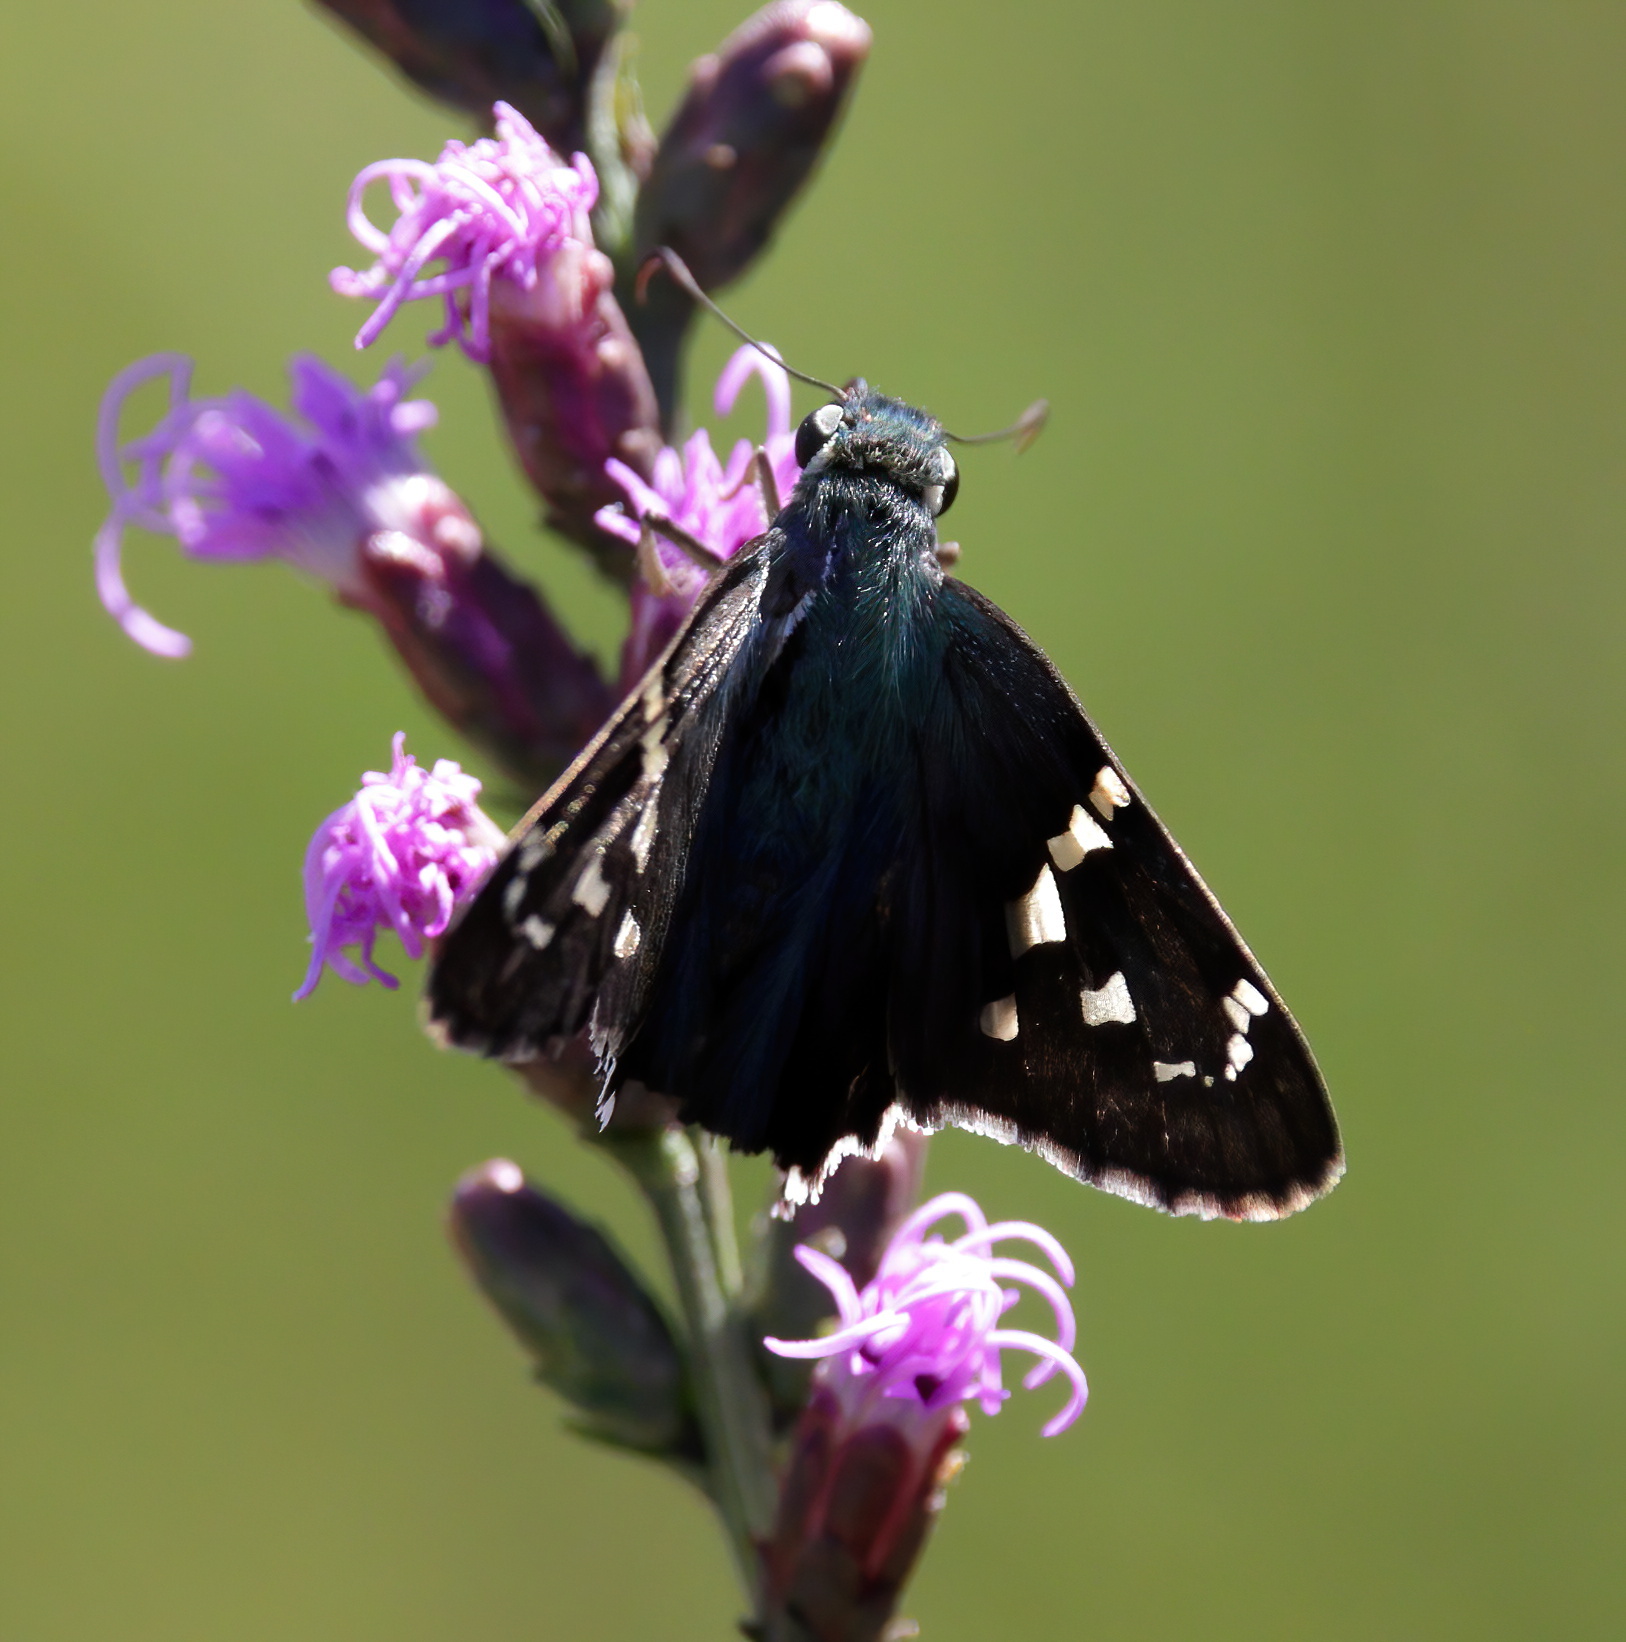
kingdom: Animalia
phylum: Arthropoda
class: Insecta
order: Lepidoptera
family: Hesperiidae
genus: Urbanus
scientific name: Urbanus proteus
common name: Long-tailed skipper
